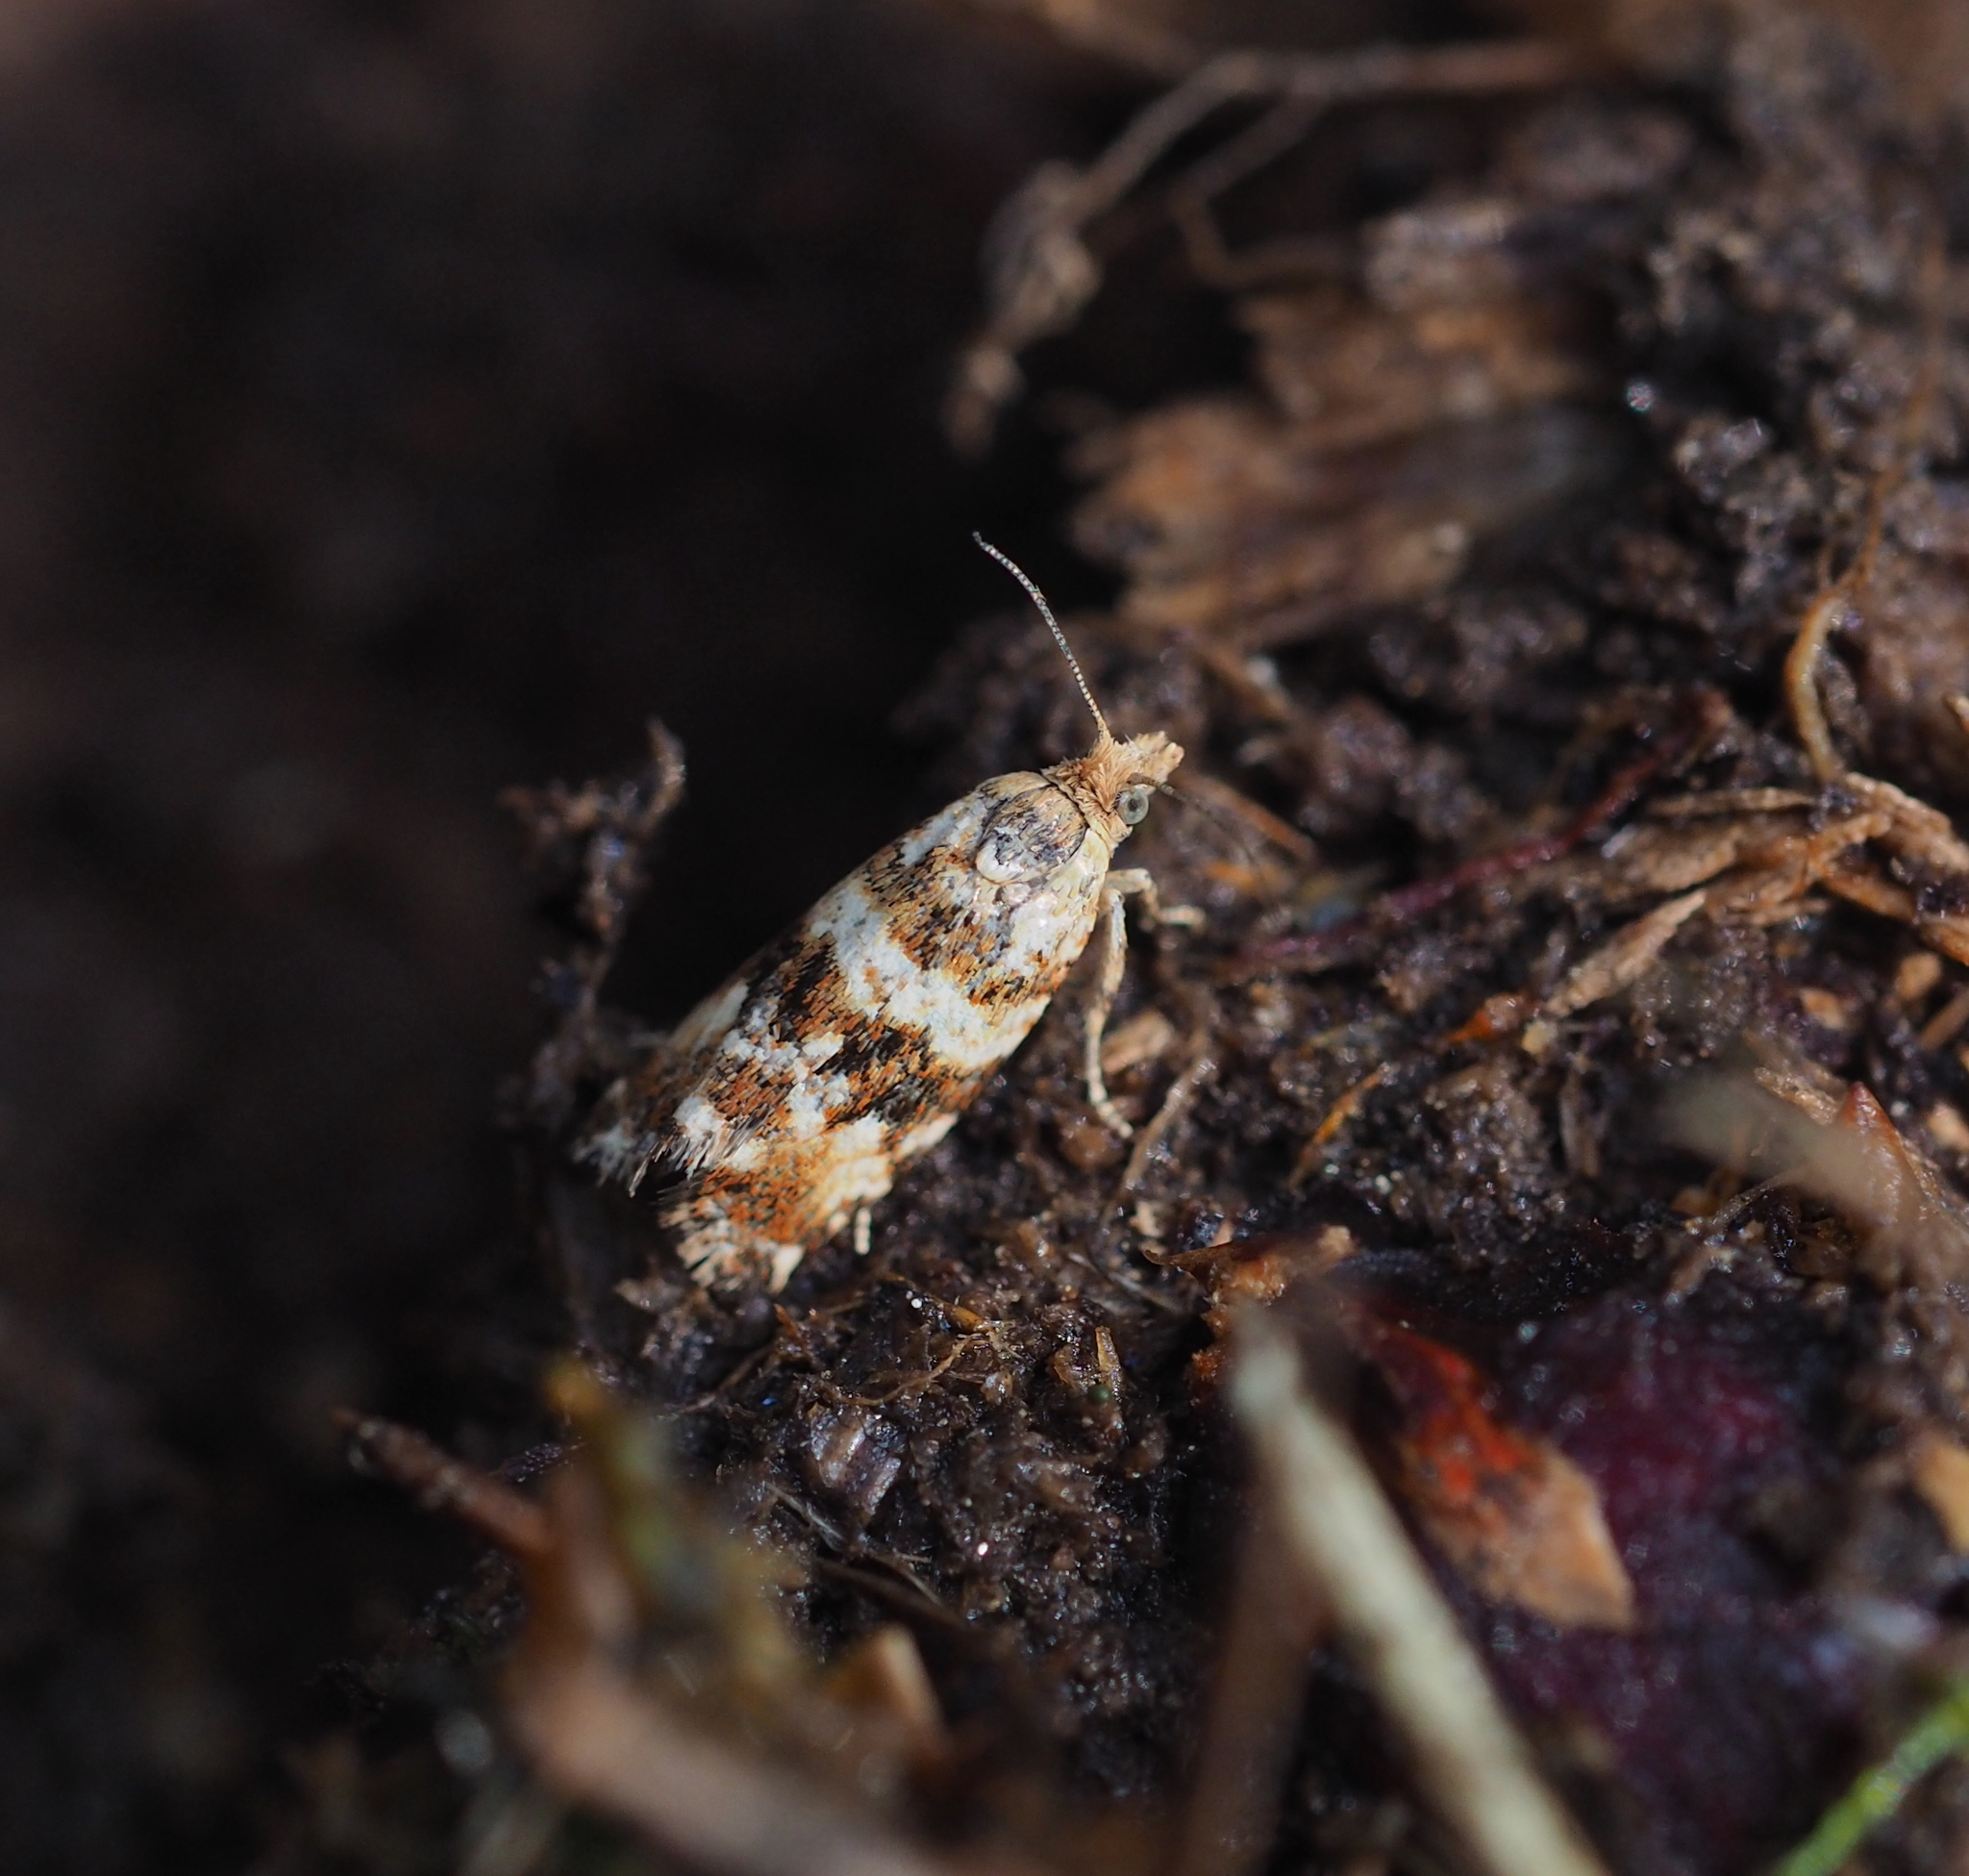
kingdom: Animalia
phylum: Arthropoda
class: Insecta
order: Lepidoptera
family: Tortricidae
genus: Olethreutes
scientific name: Olethreutes palustrana
